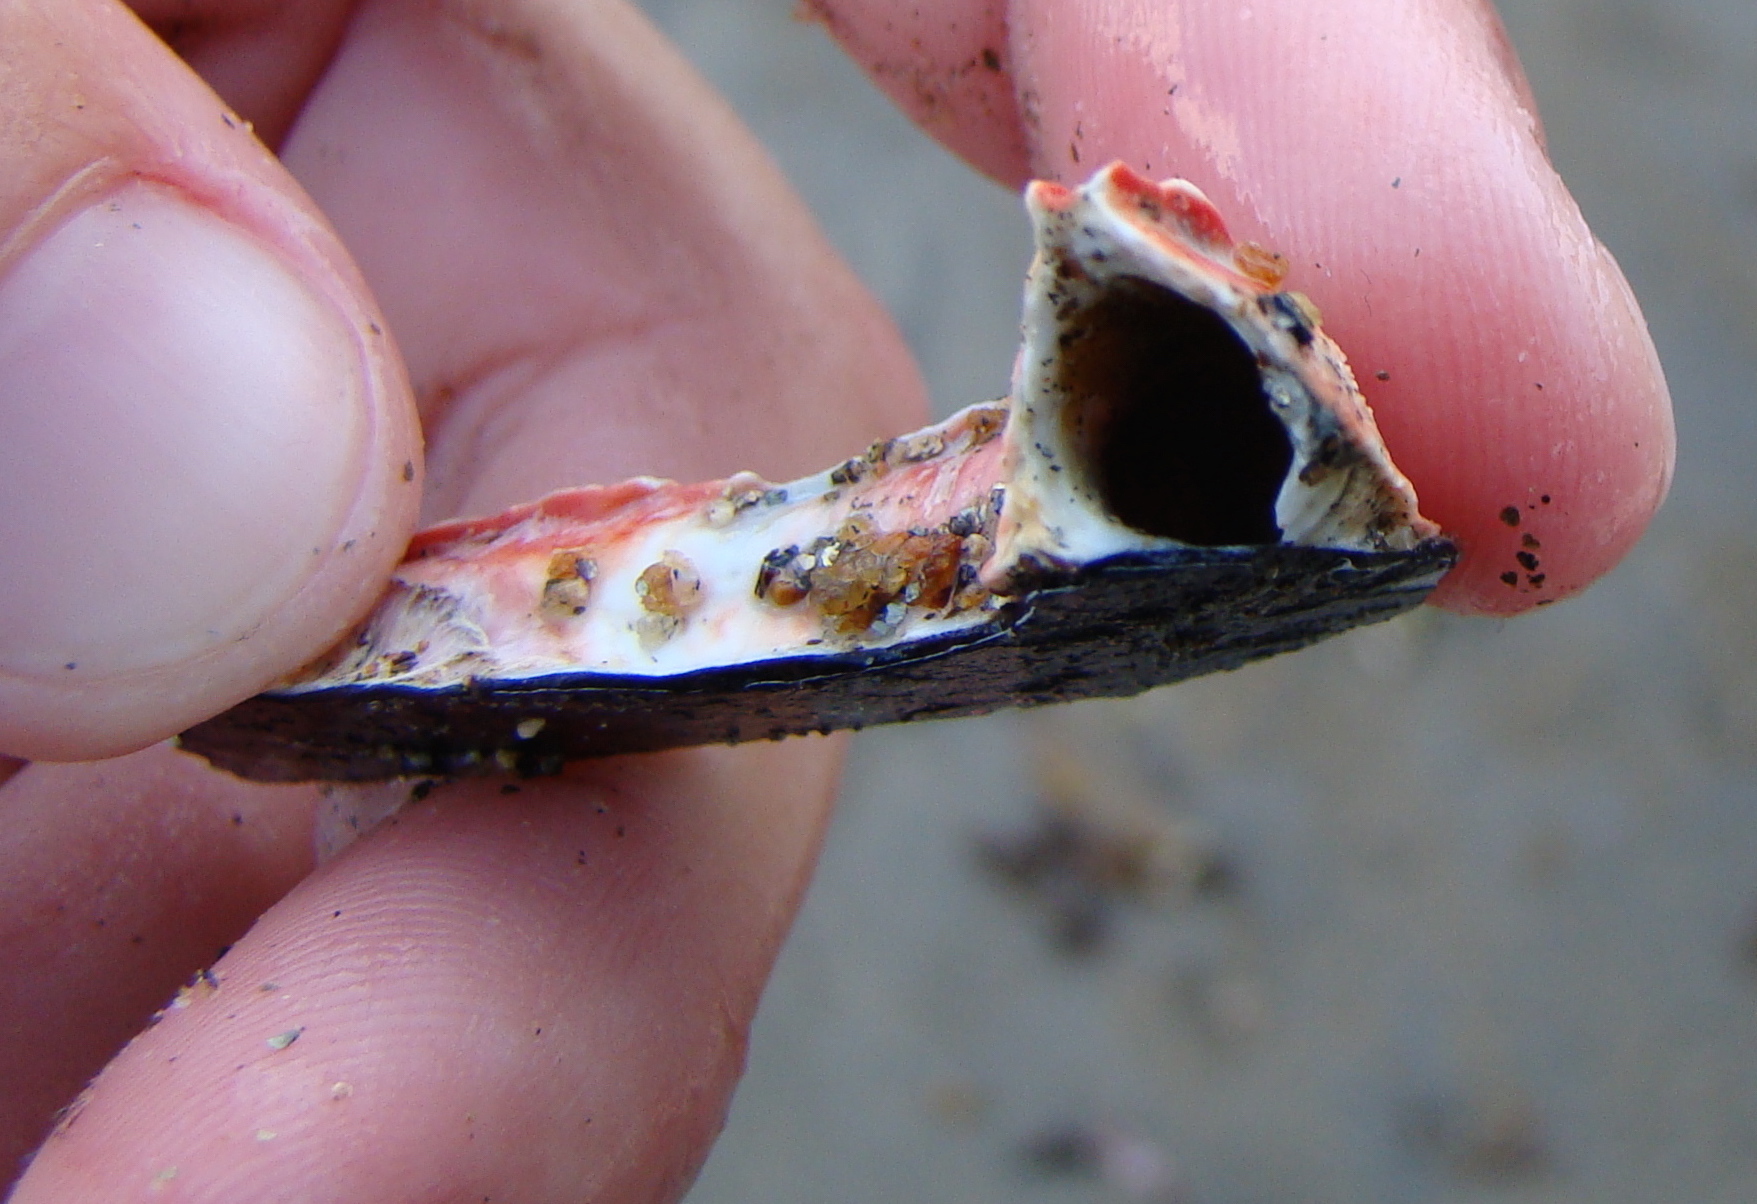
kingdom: Animalia
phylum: Annelida
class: Polychaeta
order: Sabellida
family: Serpulidae
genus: Galeolaria
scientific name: Galeolaria hystrix
